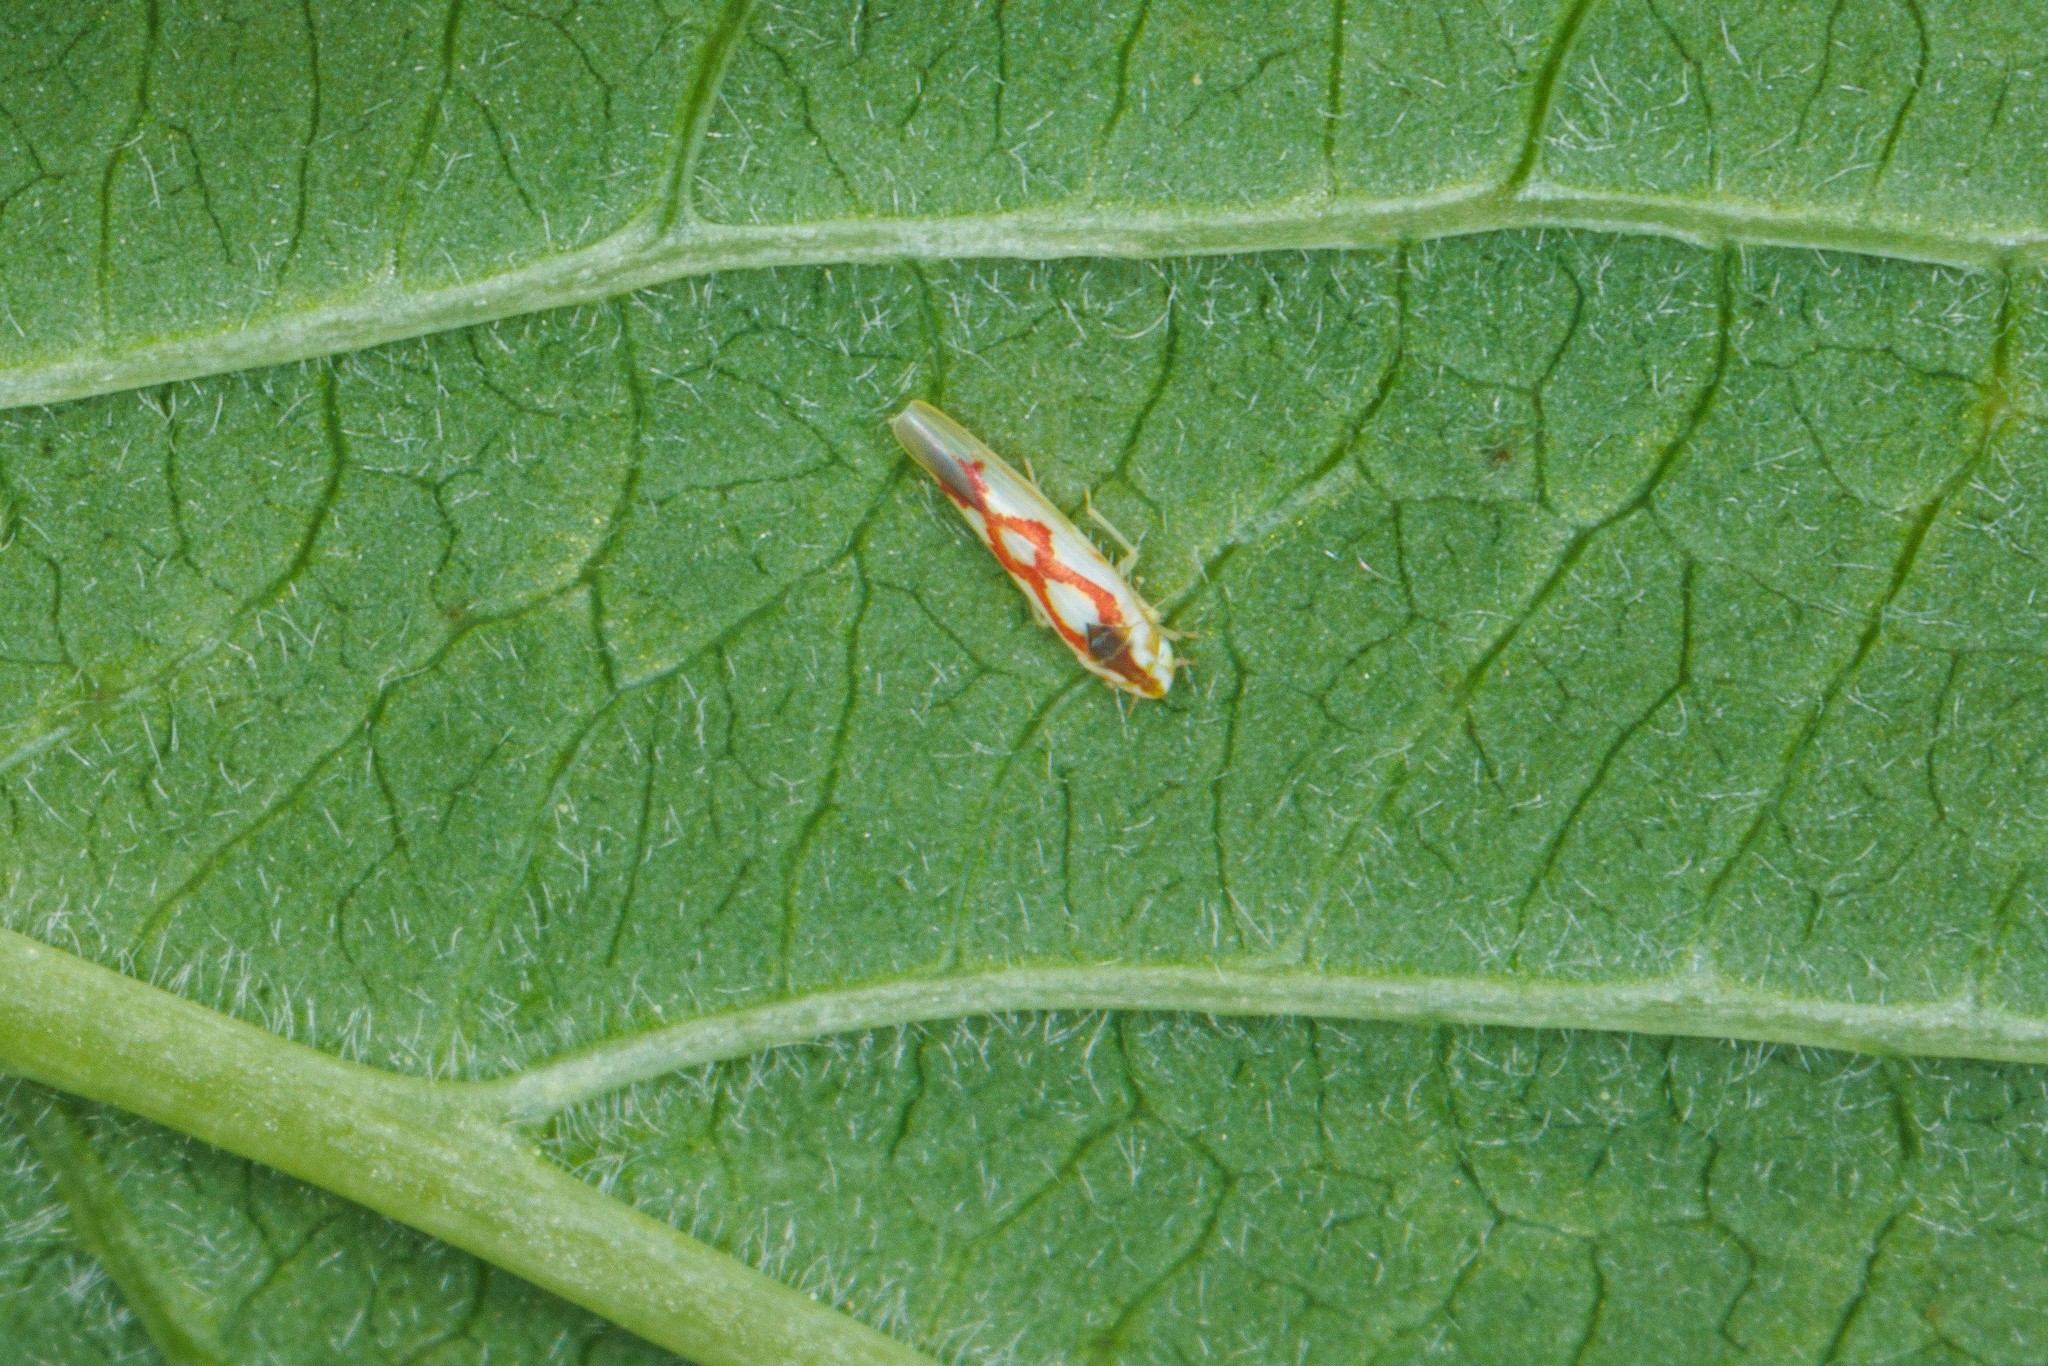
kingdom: Animalia
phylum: Arthropoda
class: Insecta
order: Hemiptera
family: Cicadellidae
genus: Zygina
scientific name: Zygina flammigera
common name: Leafhopper
